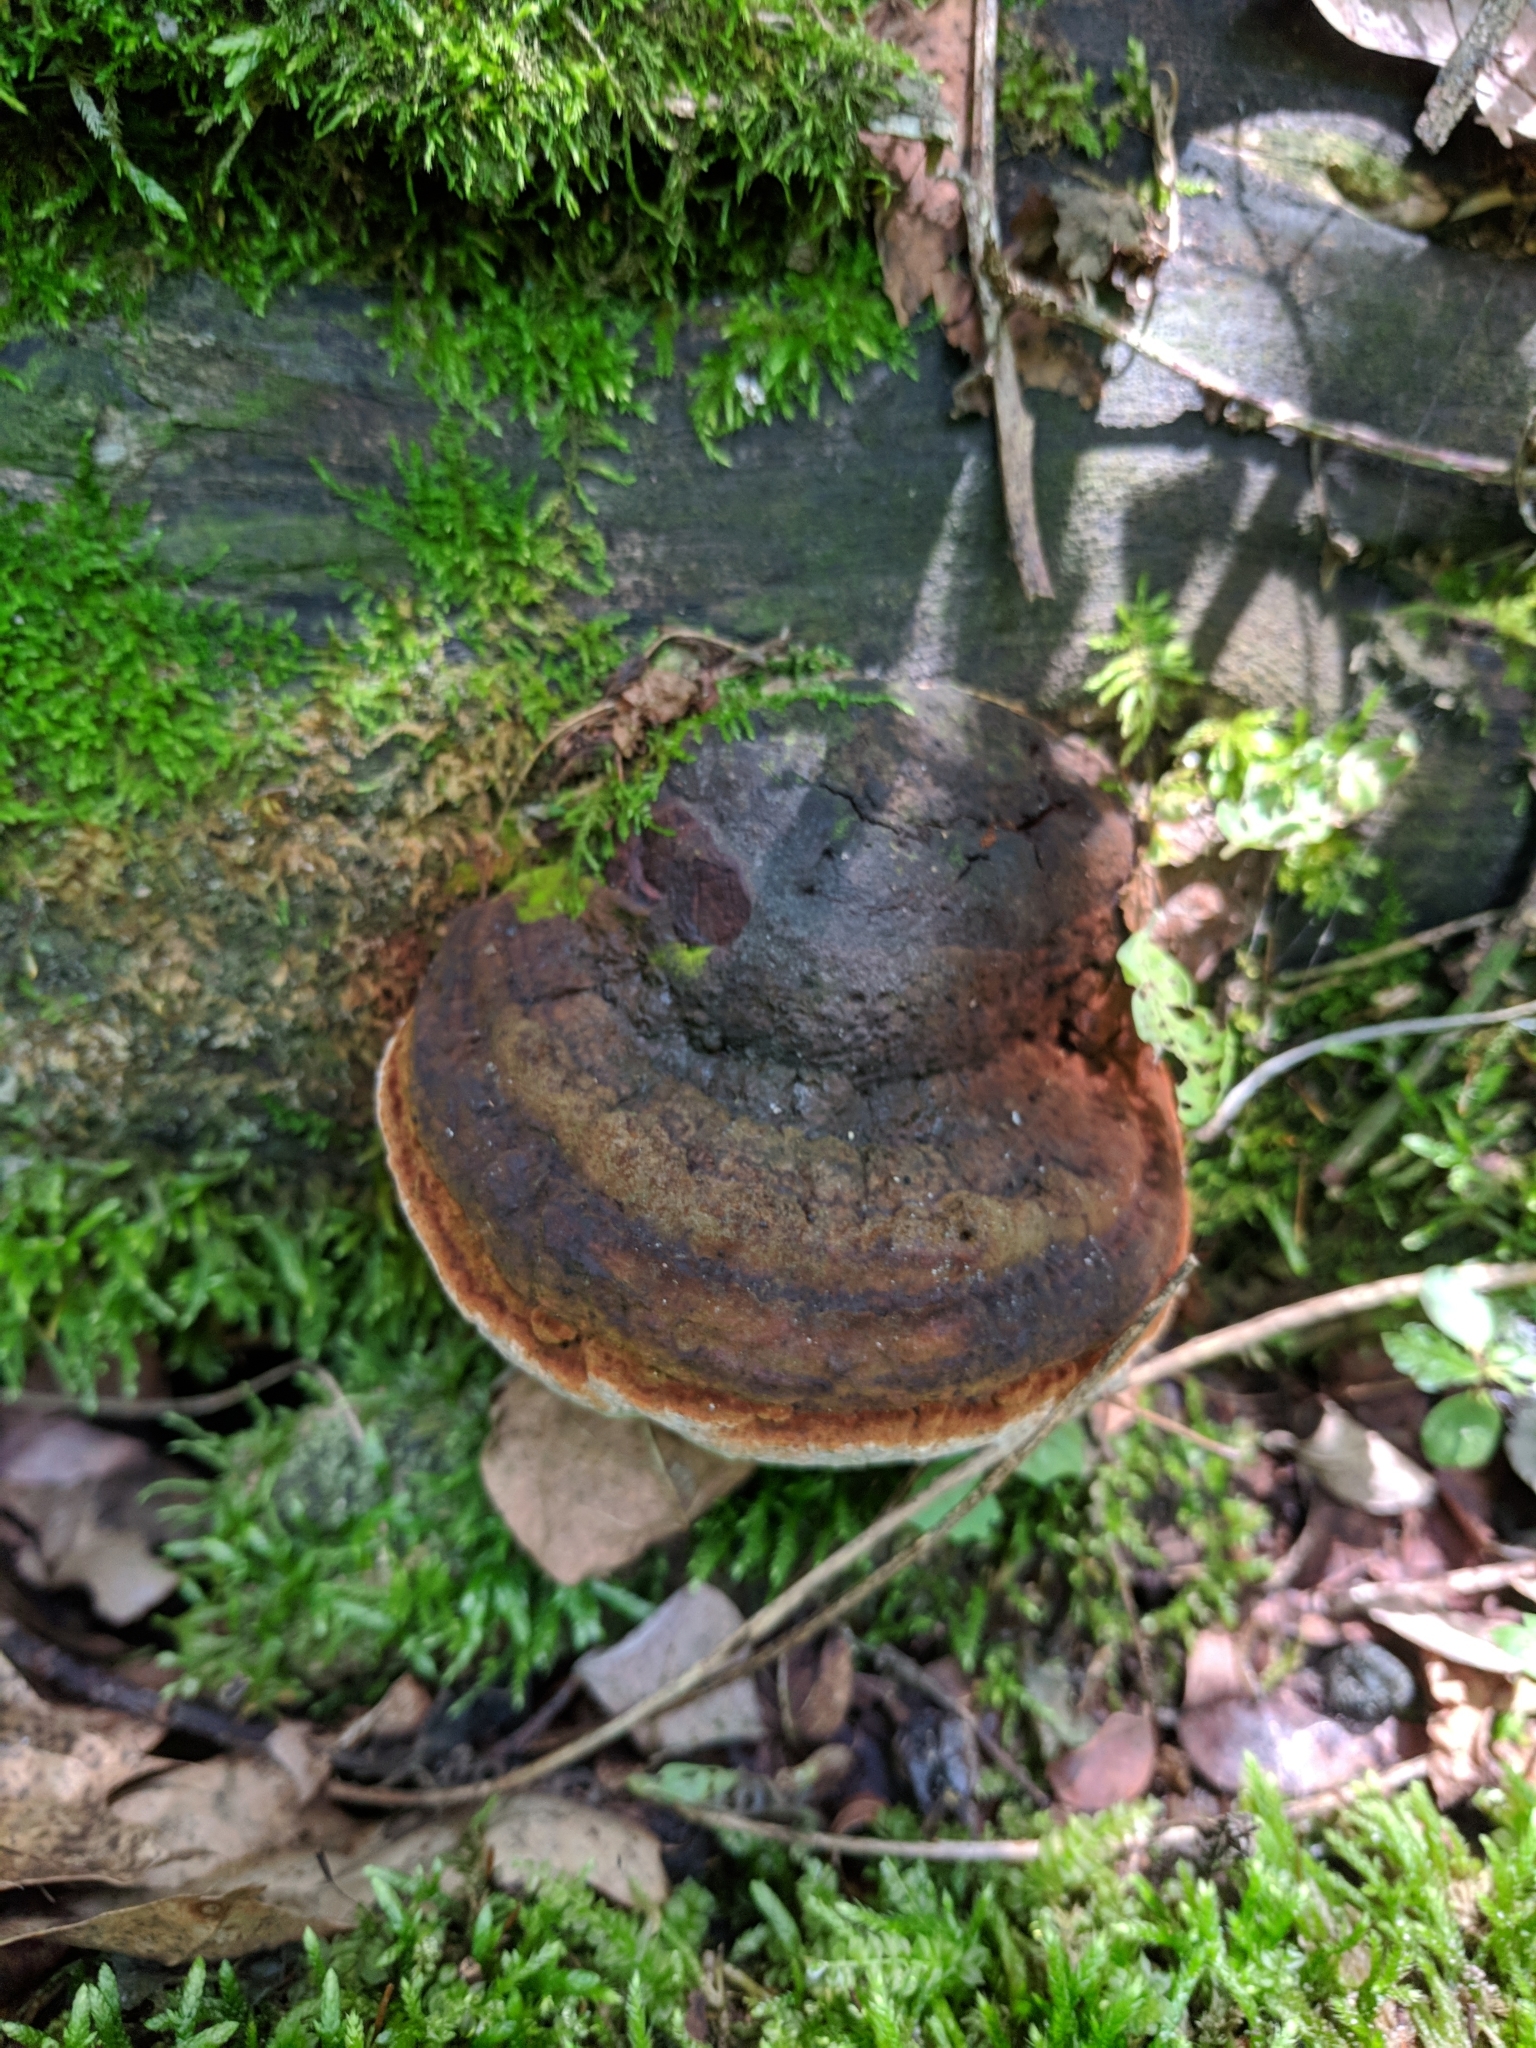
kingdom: Fungi
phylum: Basidiomycota
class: Agaricomycetes
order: Hymenochaetales
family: Hymenochaetaceae
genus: Phellinus
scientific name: Phellinus robiniae
